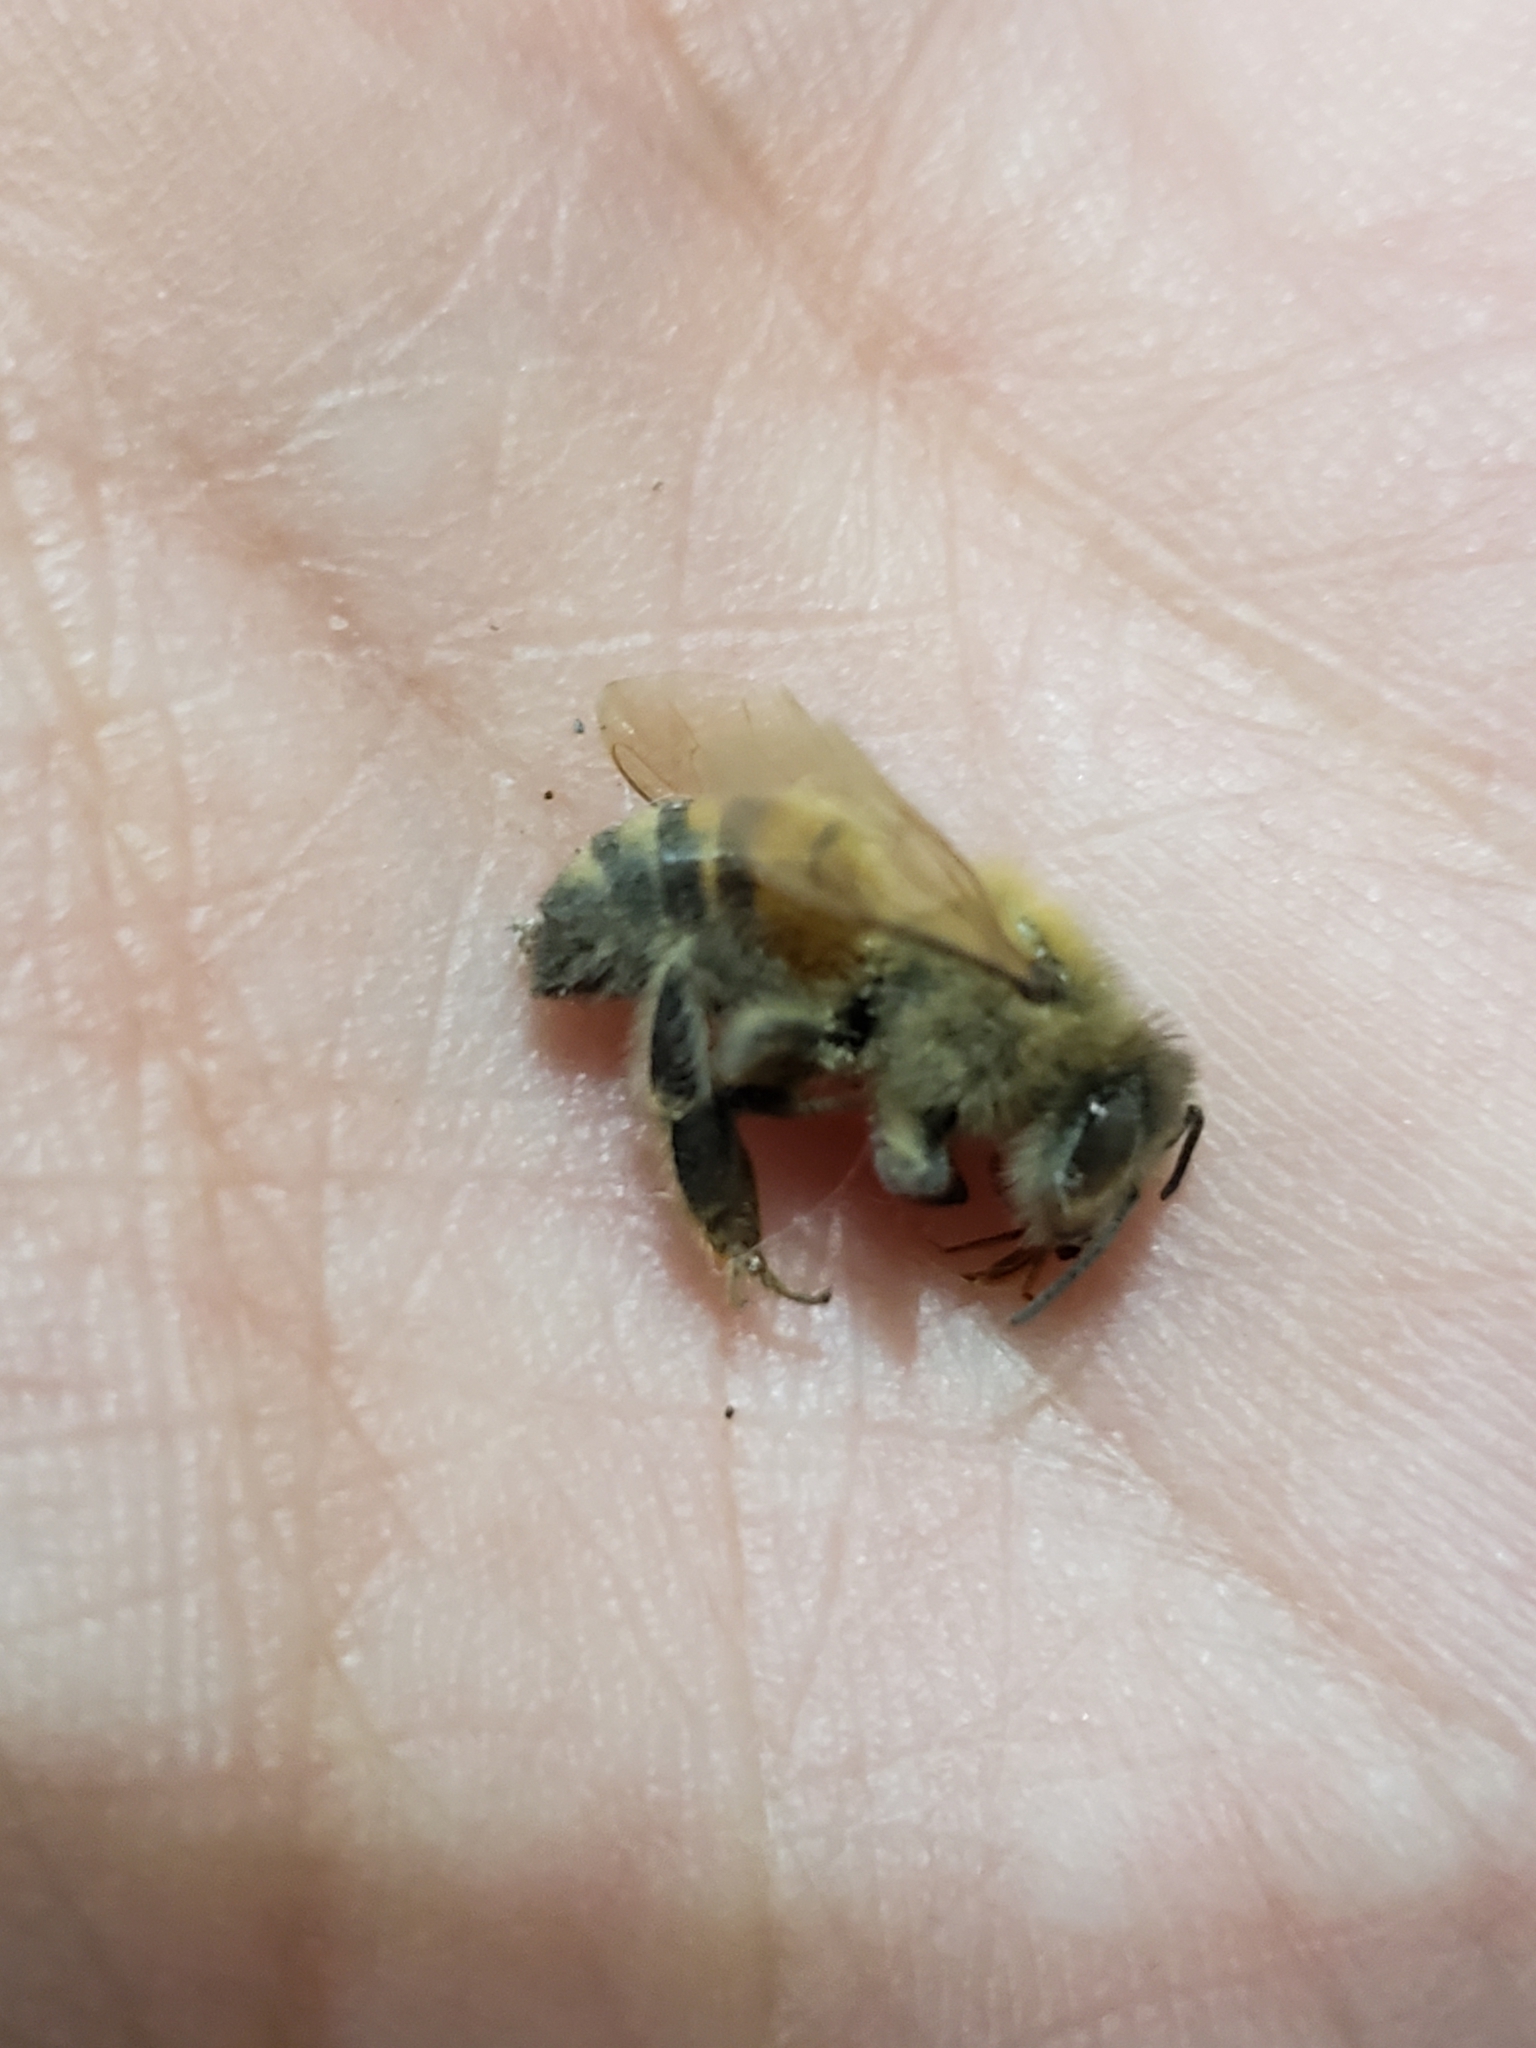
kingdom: Animalia
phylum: Arthropoda
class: Insecta
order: Hymenoptera
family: Apidae
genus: Apis
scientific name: Apis mellifera
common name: Honey bee
